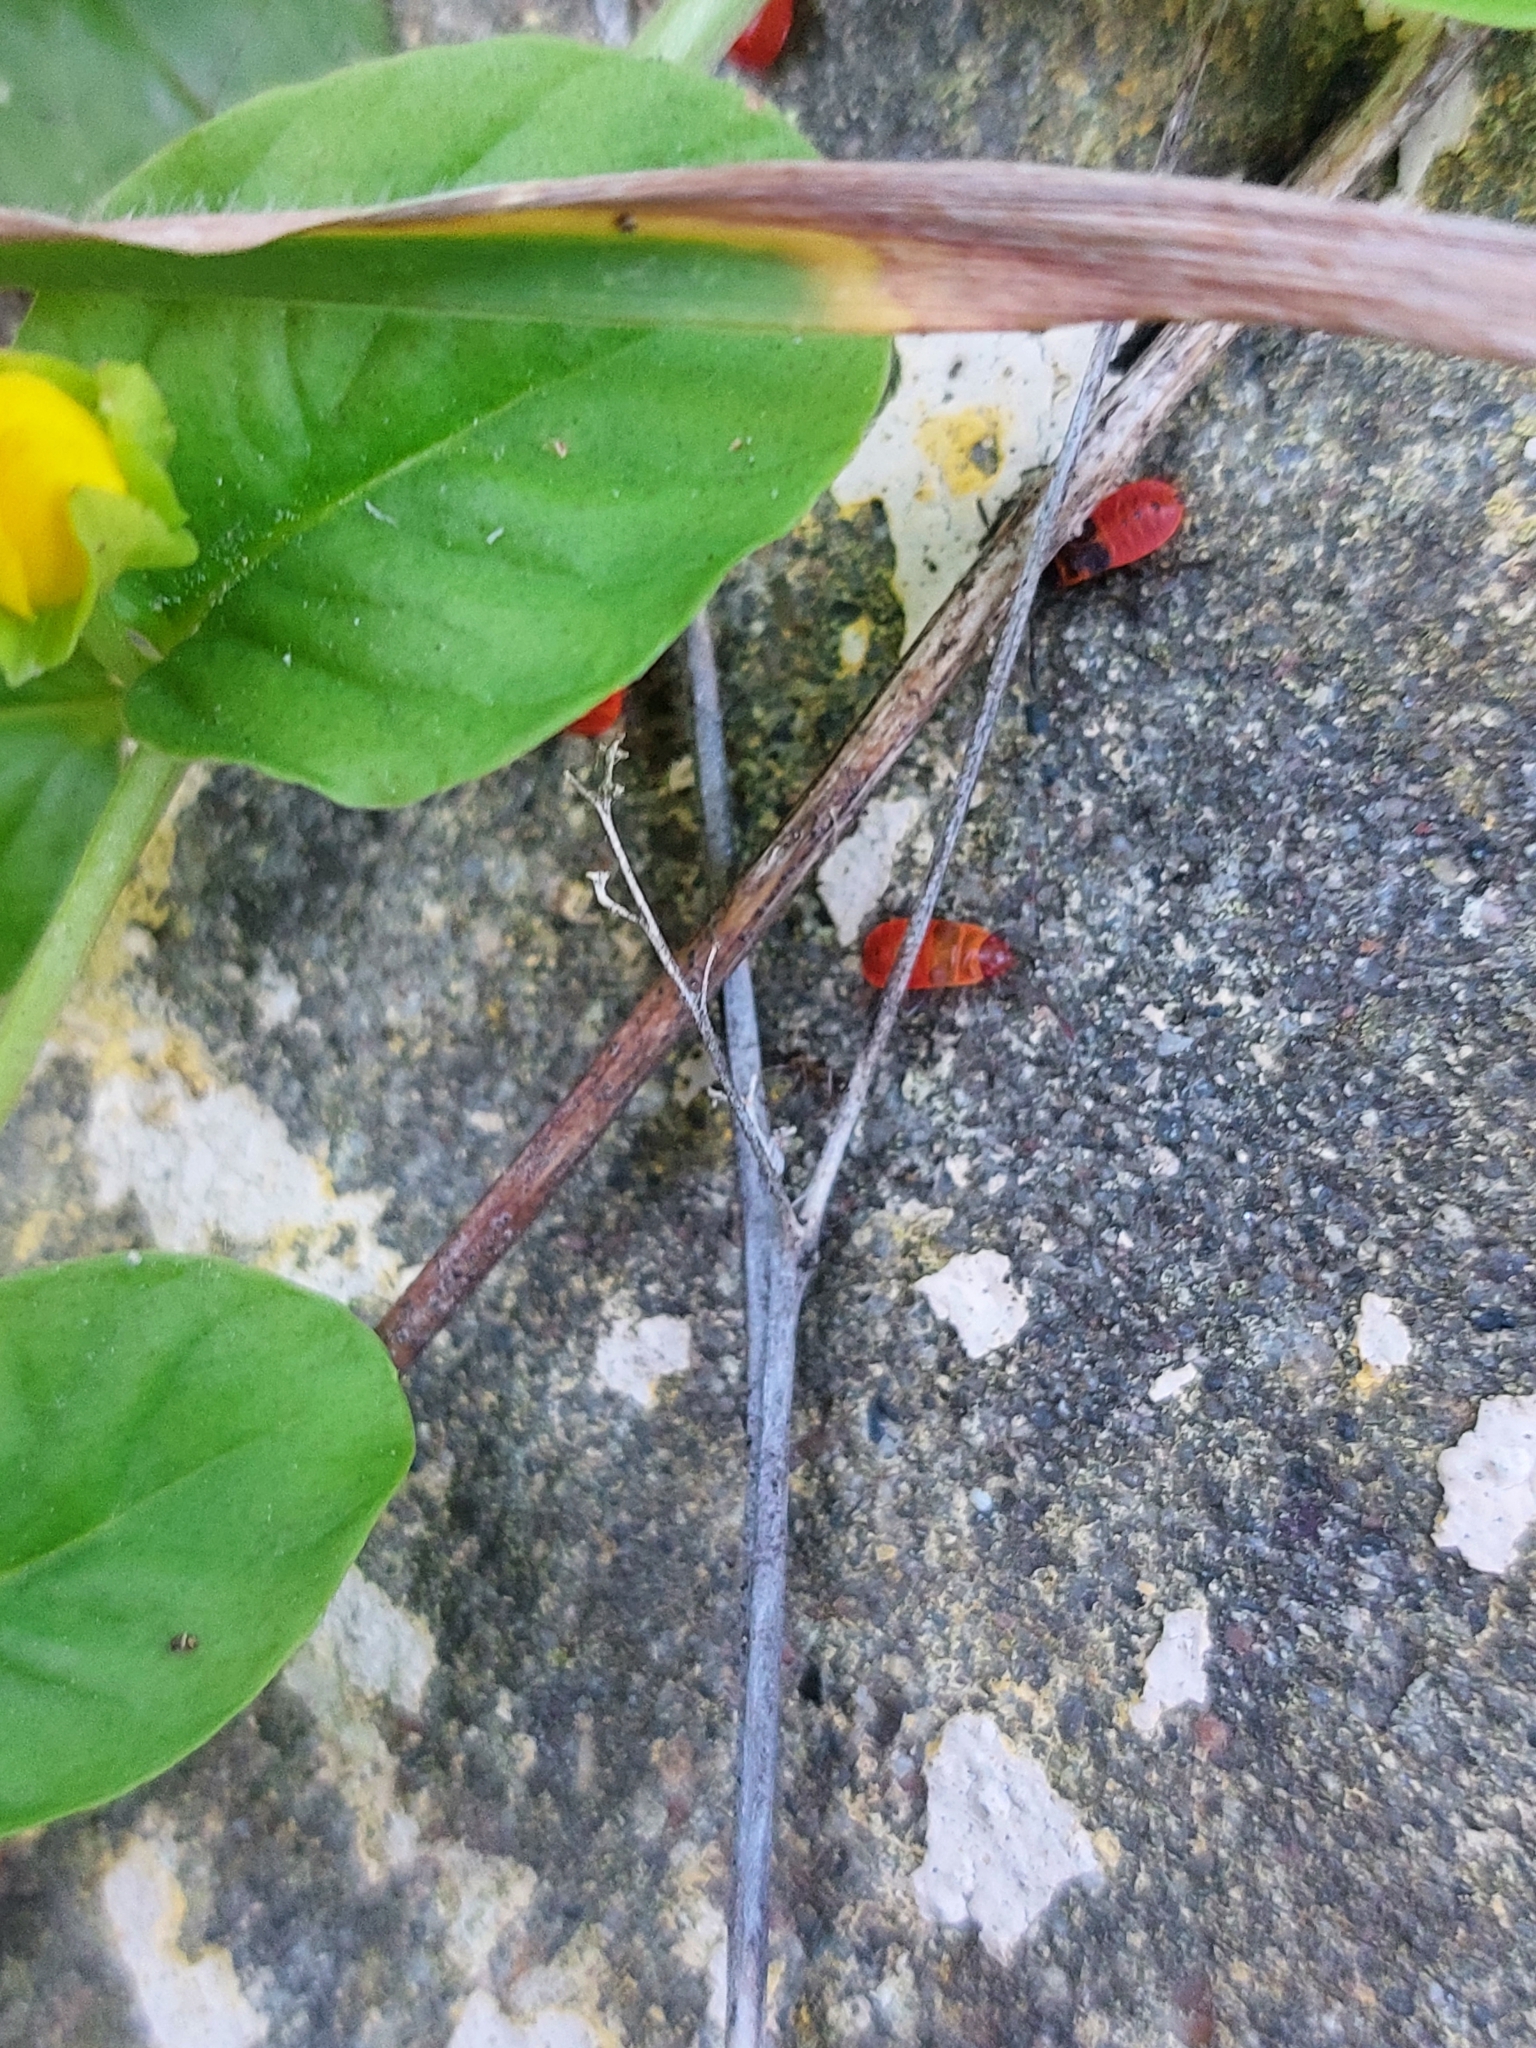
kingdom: Animalia
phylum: Arthropoda
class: Insecta
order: Hemiptera
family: Pyrrhocoridae
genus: Pyrrhocoris
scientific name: Pyrrhocoris apterus
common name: Firebug
